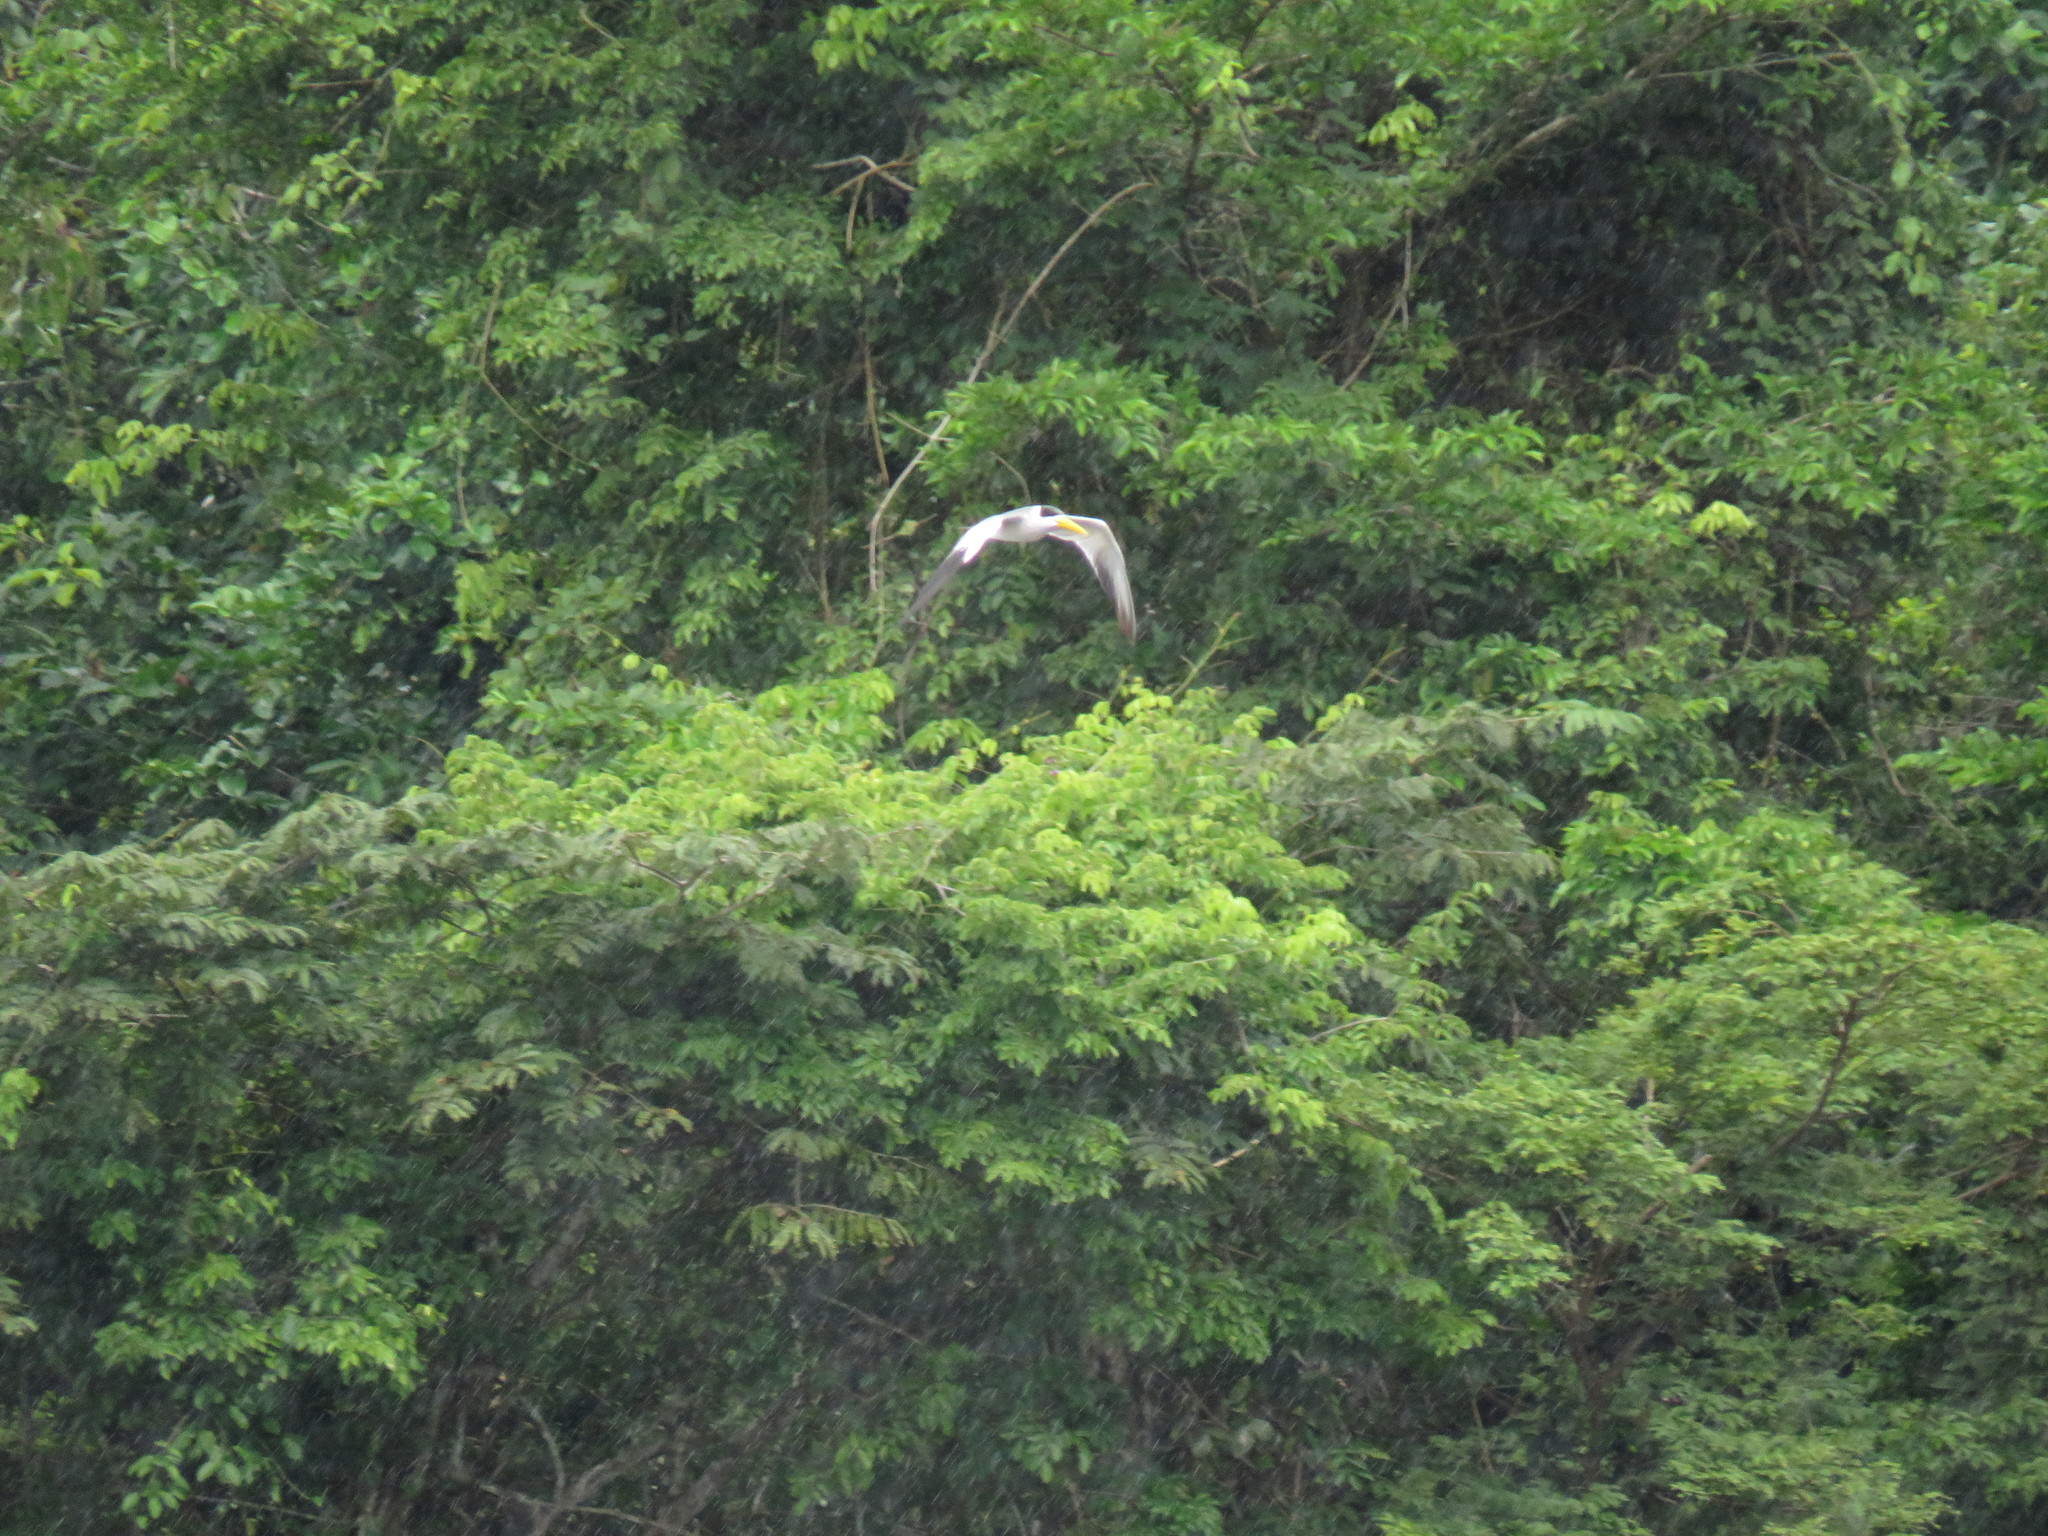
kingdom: Animalia
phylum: Chordata
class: Aves
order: Charadriiformes
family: Laridae
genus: Phaetusa
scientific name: Phaetusa simplex
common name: Large-billed tern
